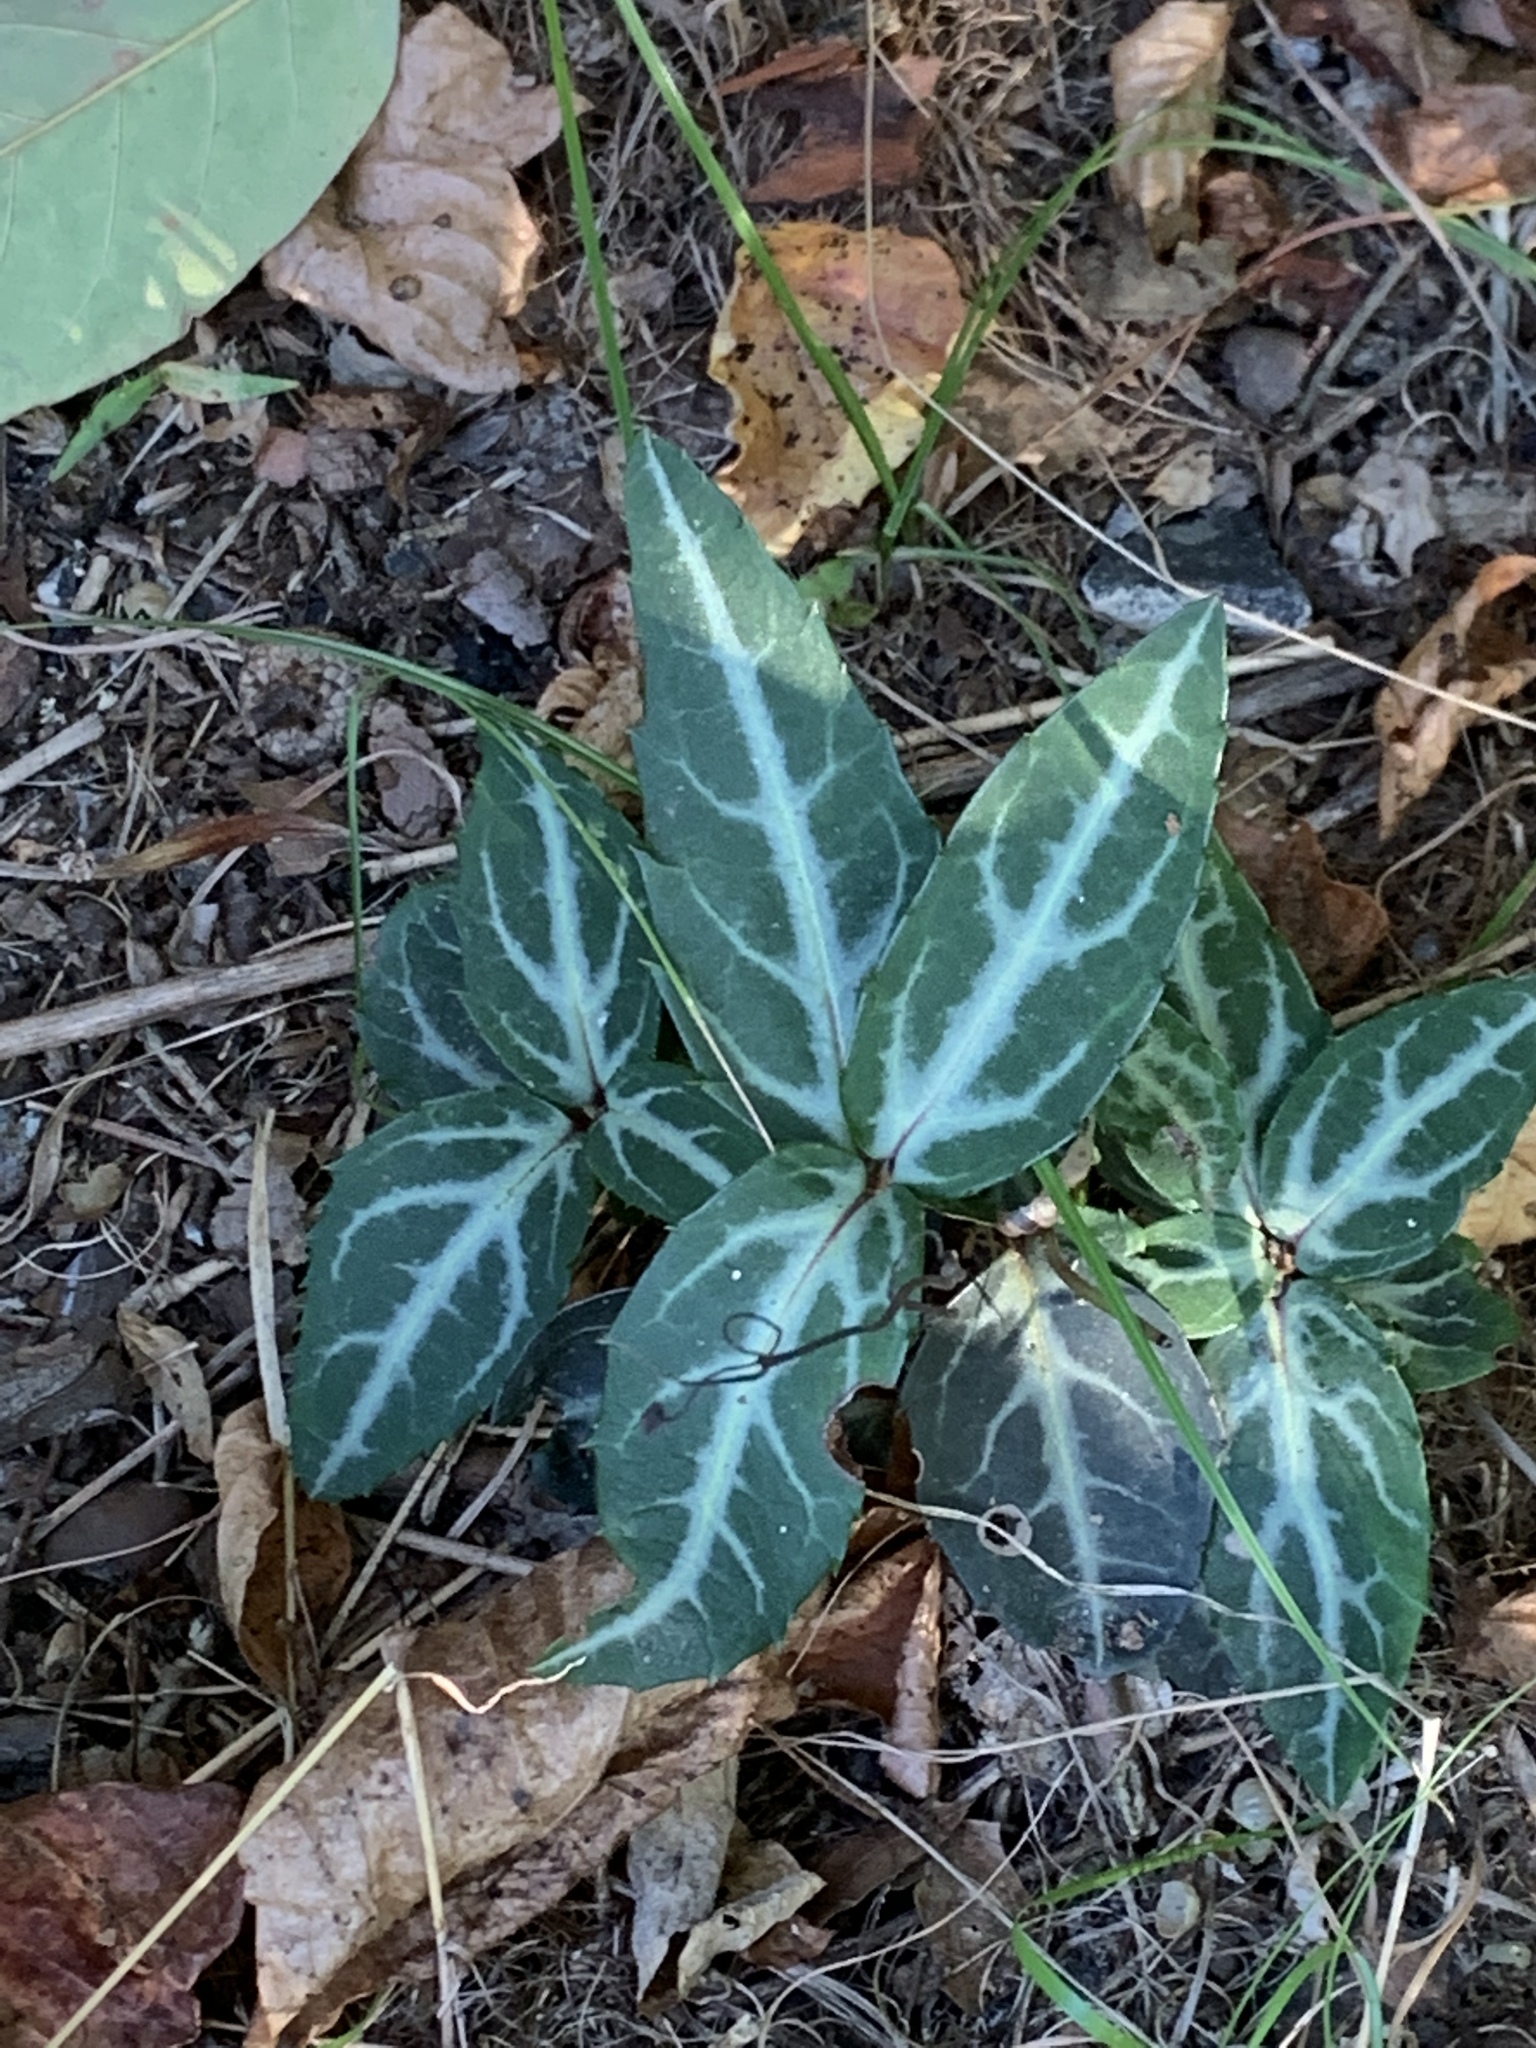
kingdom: Plantae
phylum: Tracheophyta
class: Magnoliopsida
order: Ericales
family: Ericaceae
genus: Chimaphila
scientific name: Chimaphila maculata
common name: Spotted pipsissewa
